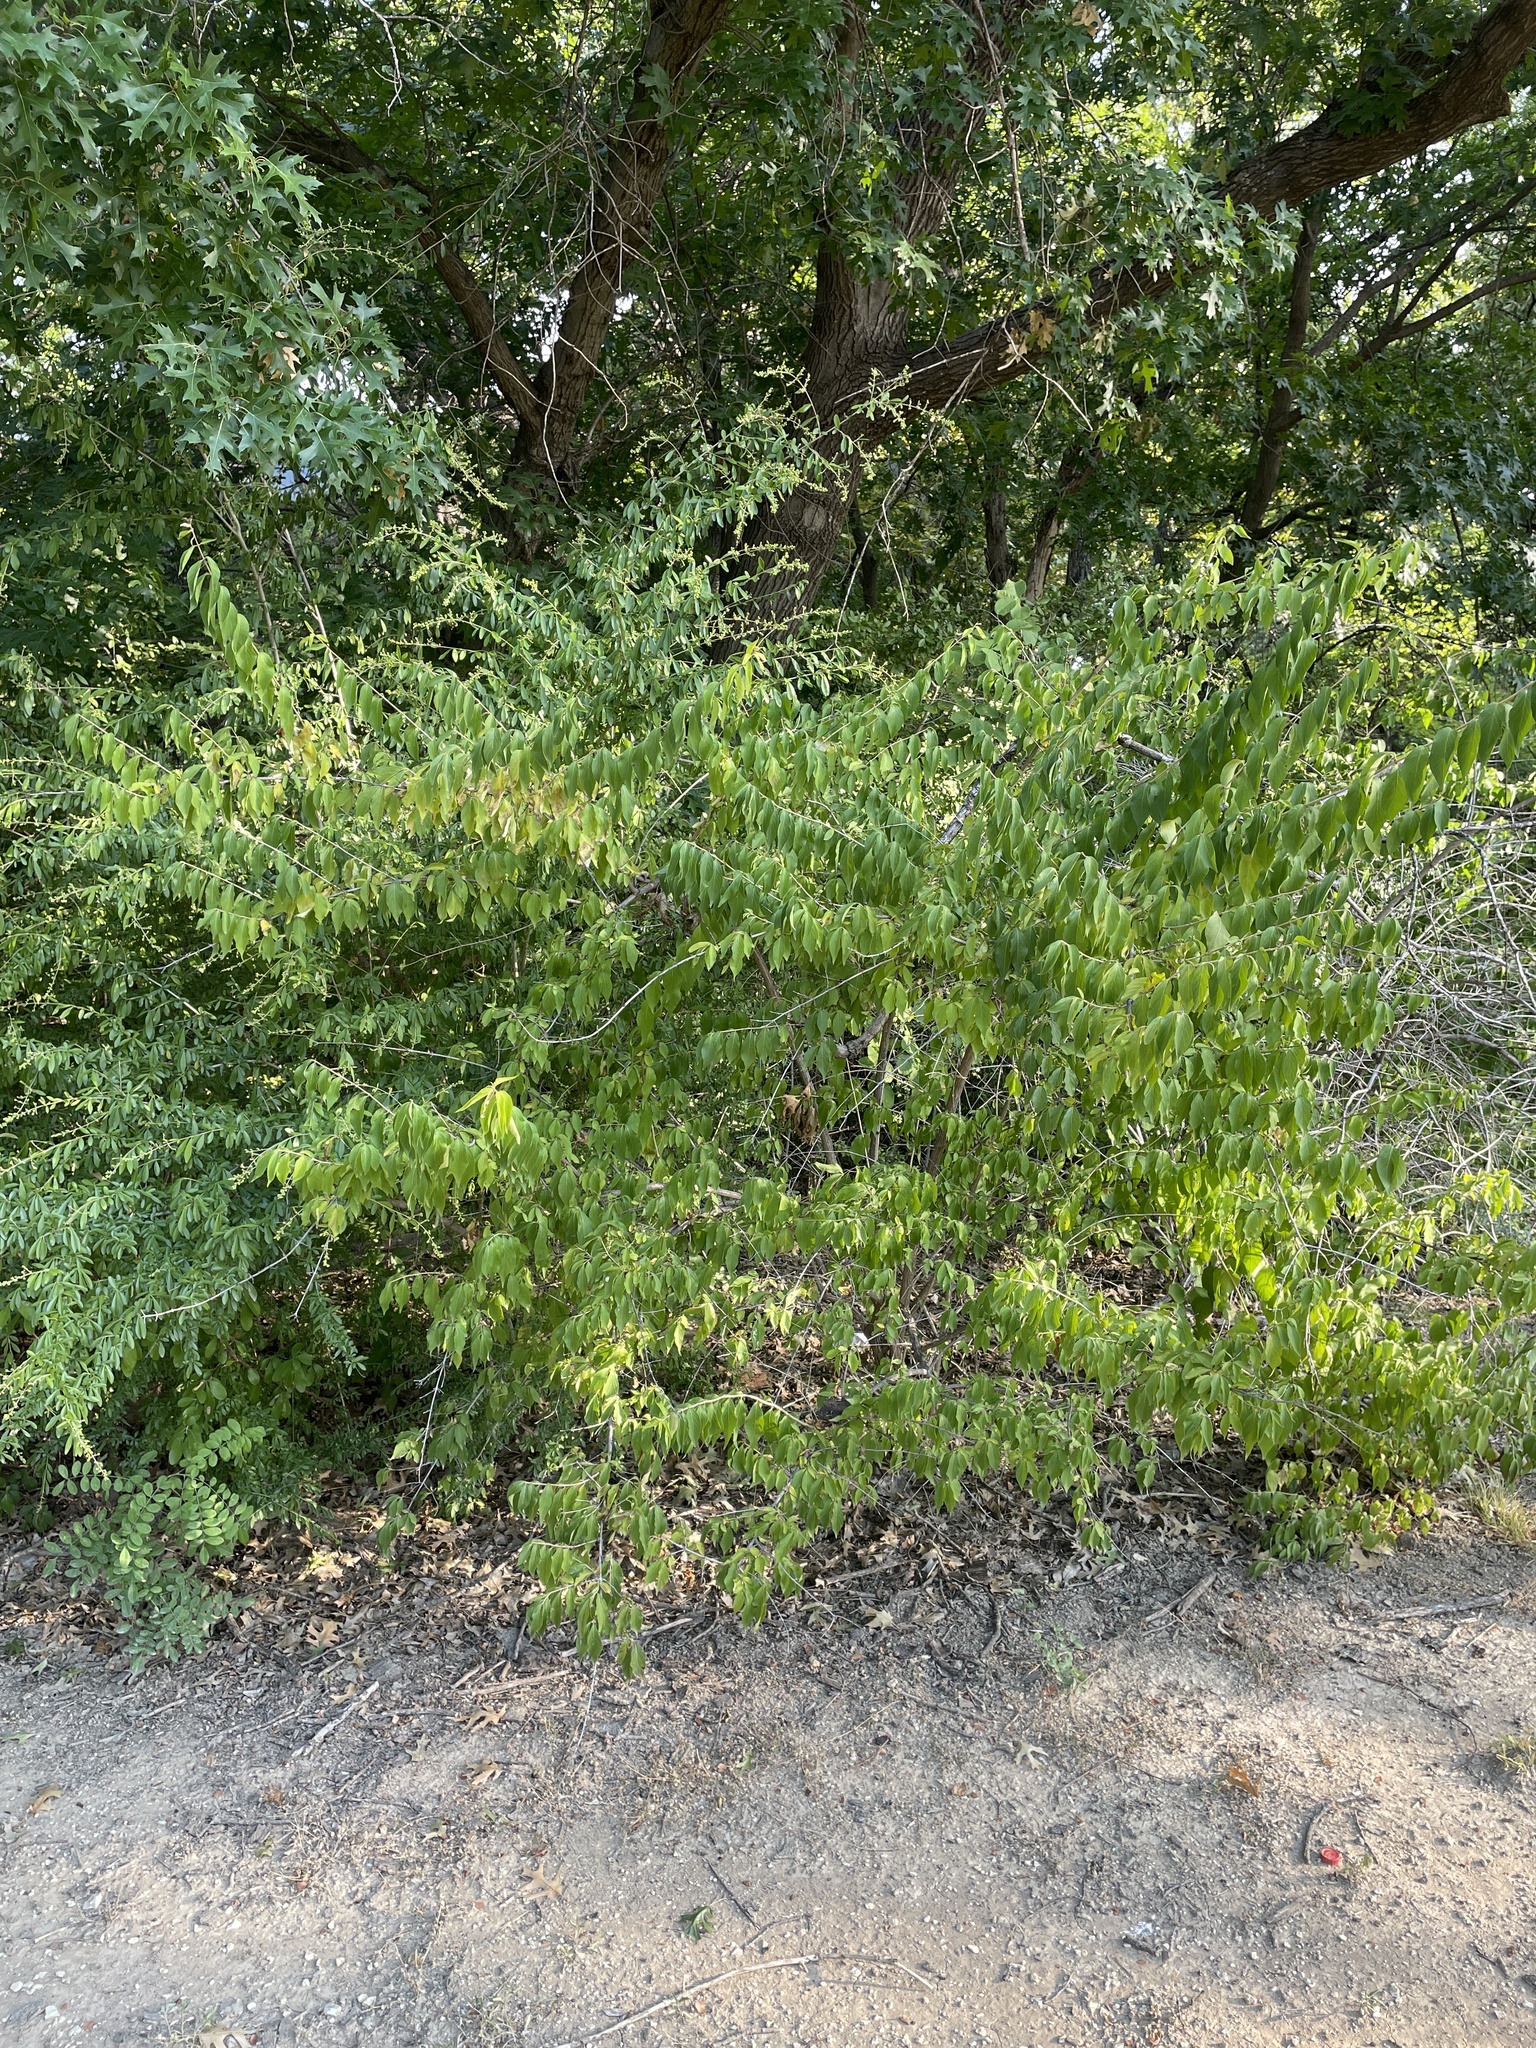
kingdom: Plantae
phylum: Tracheophyta
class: Magnoliopsida
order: Dipsacales
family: Caprifoliaceae
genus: Lonicera
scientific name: Lonicera maackii
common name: Amur honeysuckle
